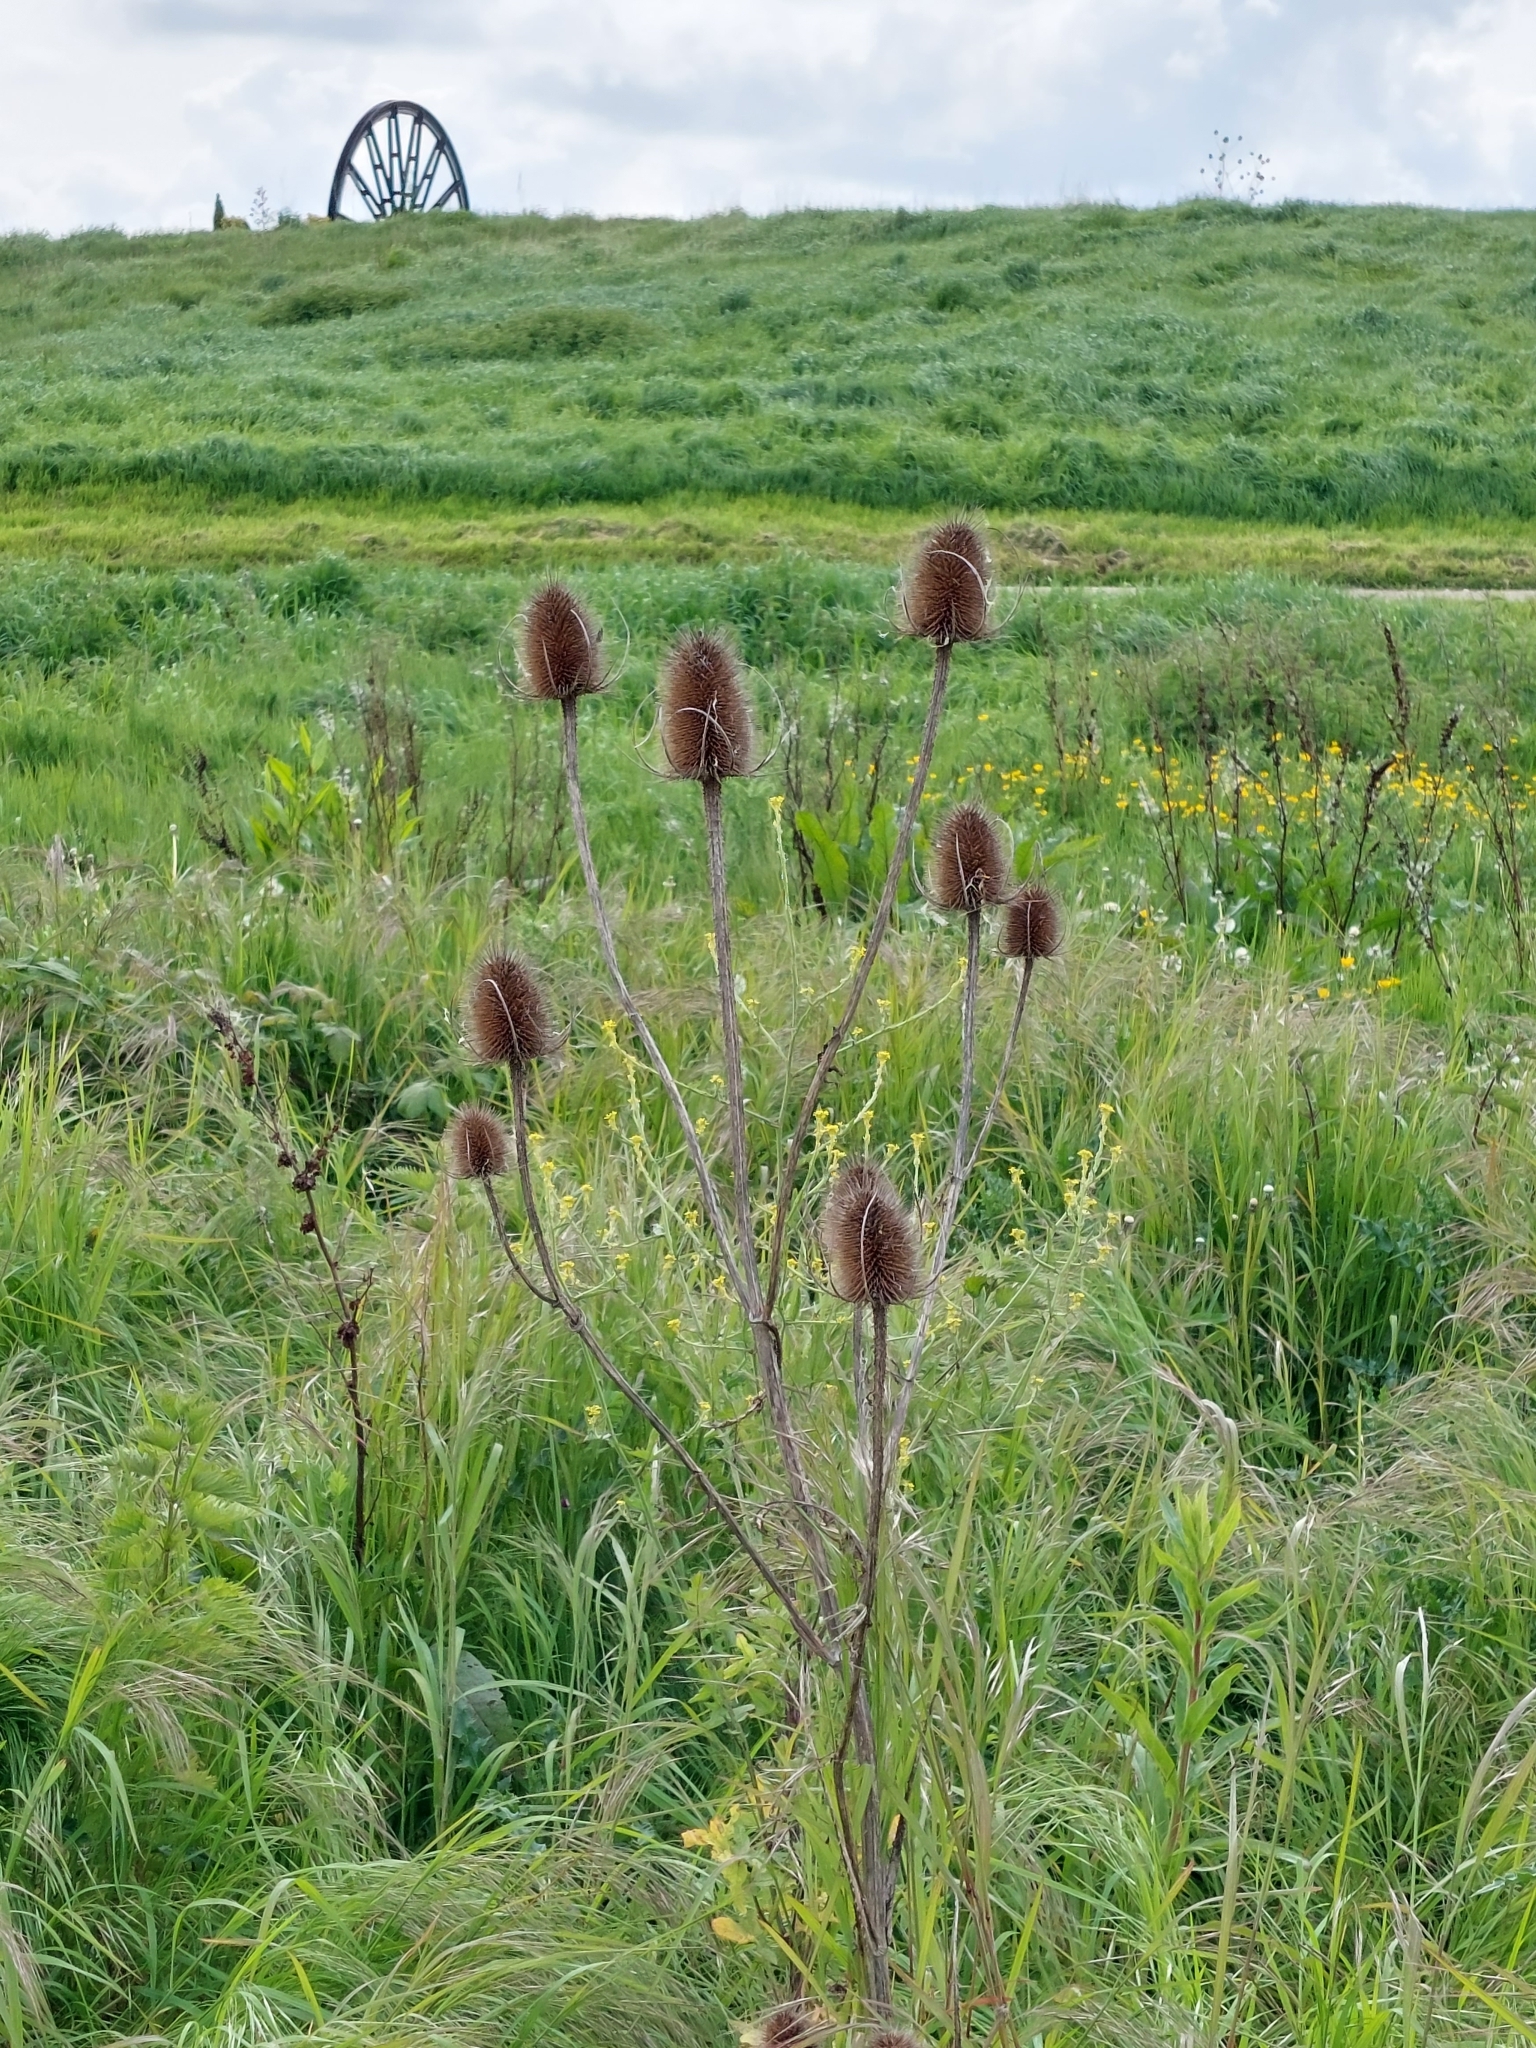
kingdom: Plantae
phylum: Tracheophyta
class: Magnoliopsida
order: Dipsacales
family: Caprifoliaceae
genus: Dipsacus
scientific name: Dipsacus fullonum
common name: Teasel
